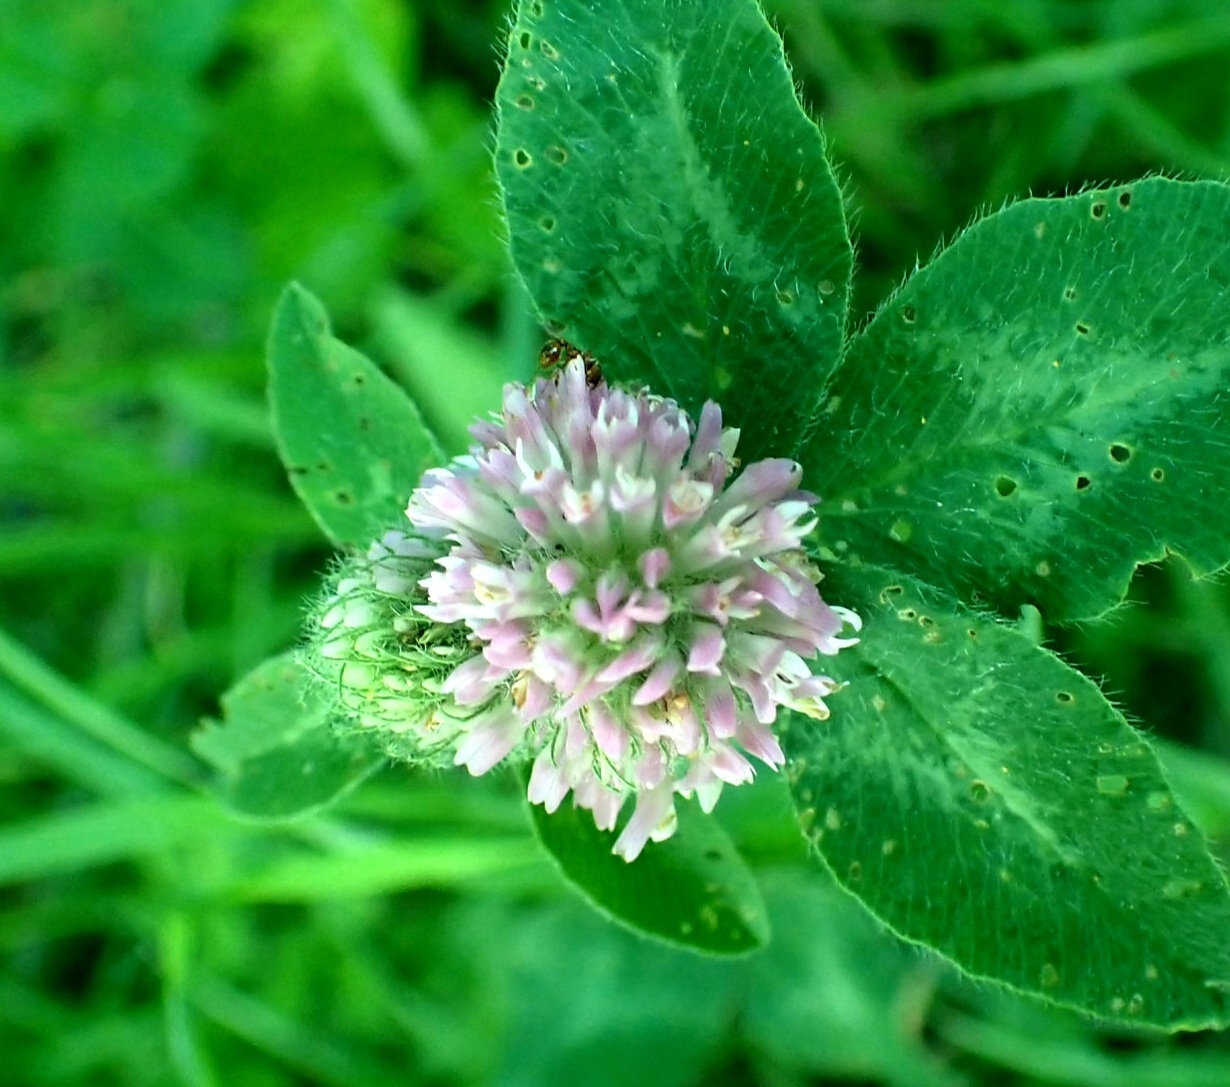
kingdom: Plantae
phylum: Tracheophyta
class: Magnoliopsida
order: Fabales
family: Fabaceae
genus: Trifolium
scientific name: Trifolium pratense
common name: Red clover
